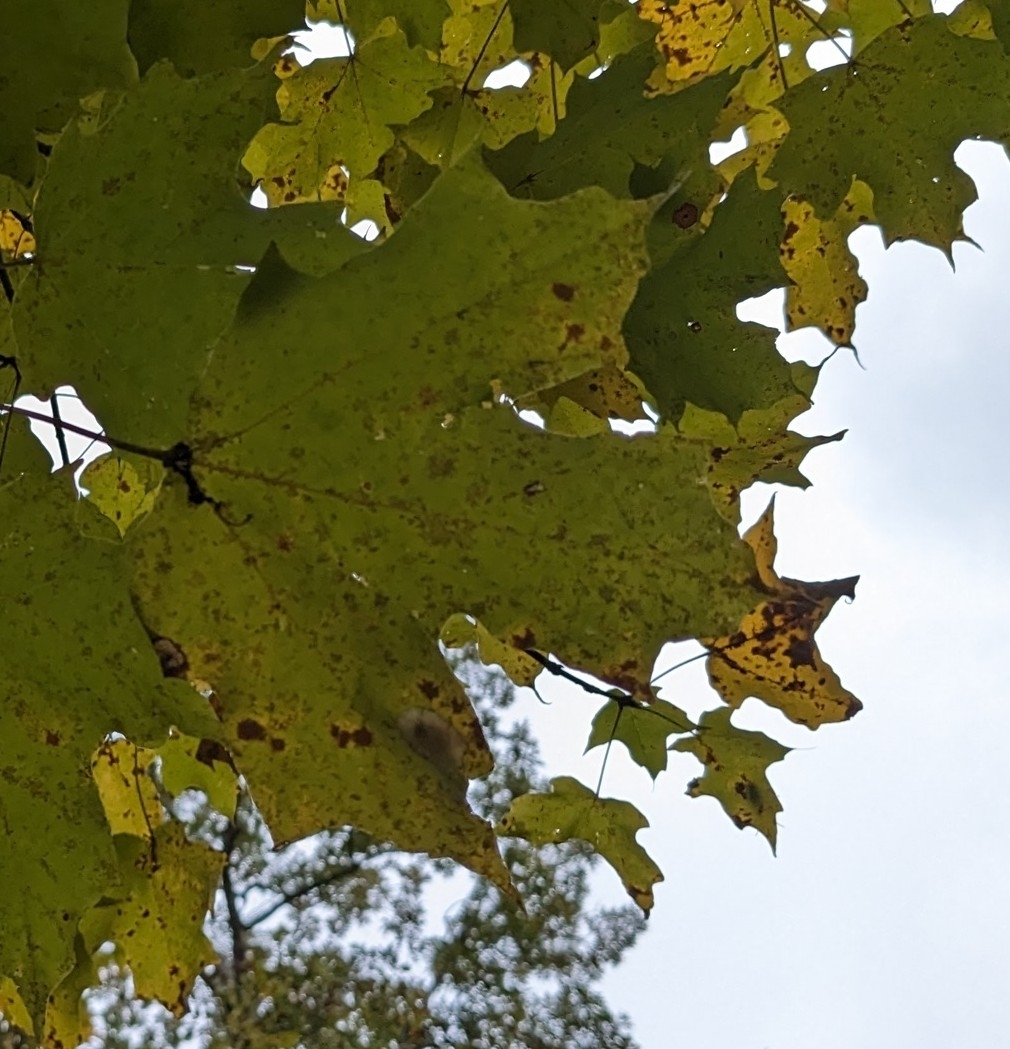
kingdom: Plantae
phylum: Tracheophyta
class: Magnoliopsida
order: Sapindales
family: Sapindaceae
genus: Acer
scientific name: Acer saccharum
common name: Sugar maple
